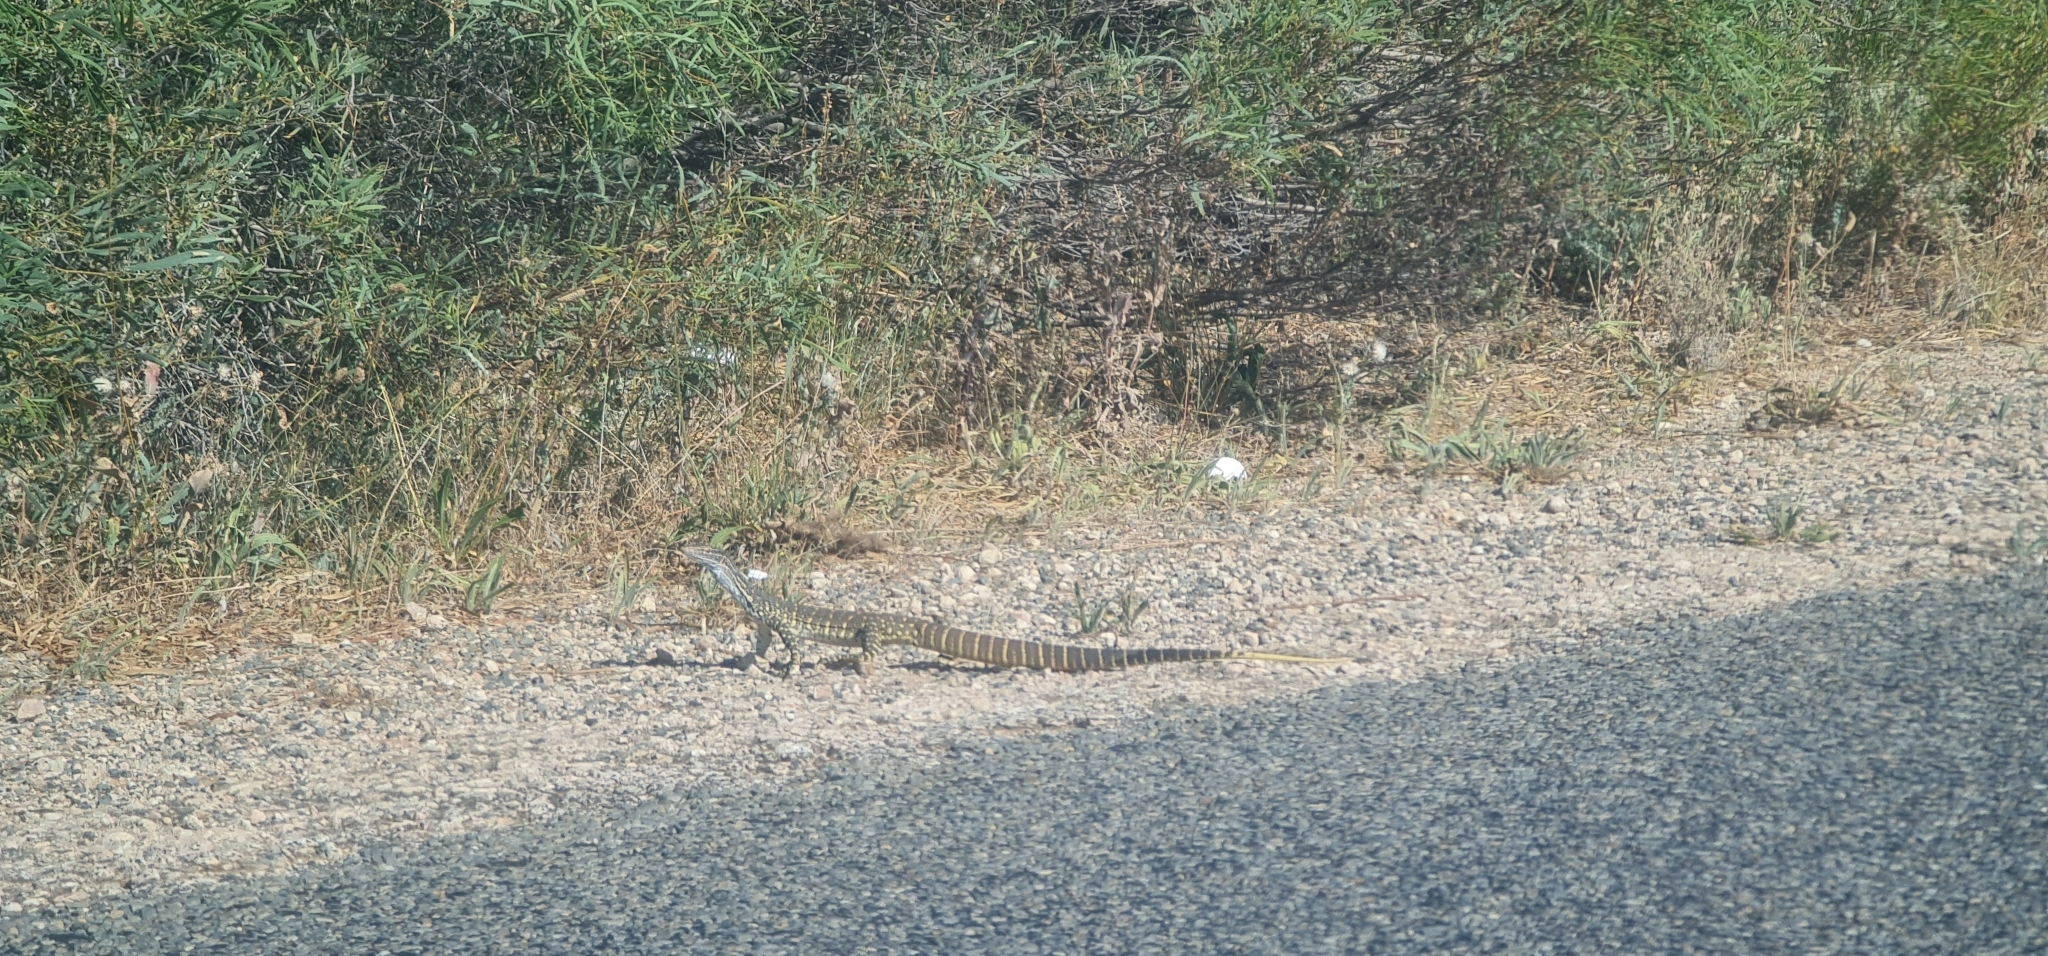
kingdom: Animalia
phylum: Chordata
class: Squamata
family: Varanidae
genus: Varanus
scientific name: Varanus gouldii
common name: Gould's goanna
